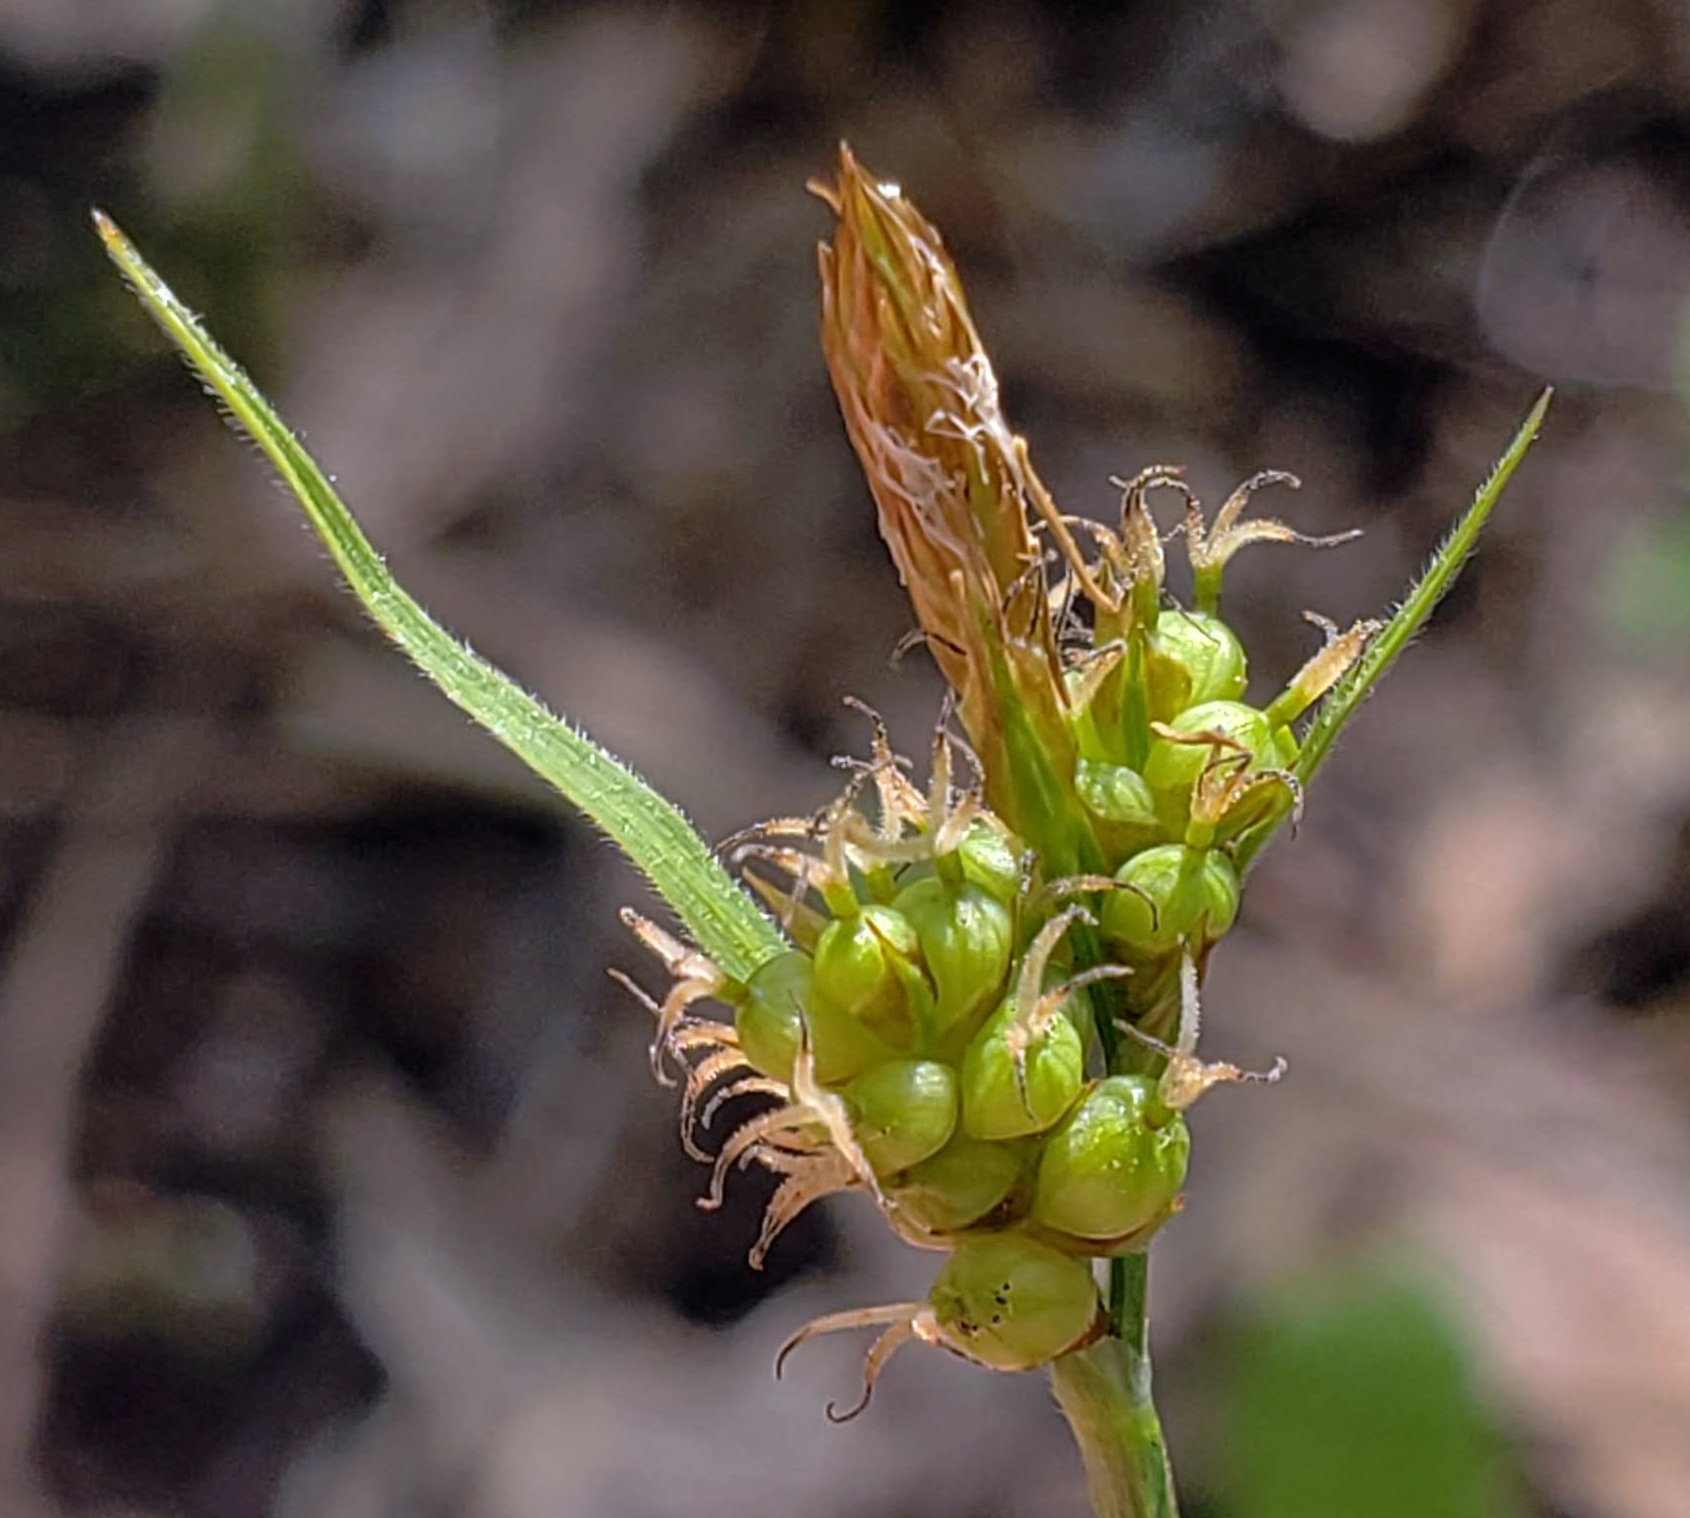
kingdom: Plantae
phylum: Tracheophyta
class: Liliopsida
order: Poales
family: Cyperaceae
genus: Carex
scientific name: Carex torreyi
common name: Torrey's sedge
